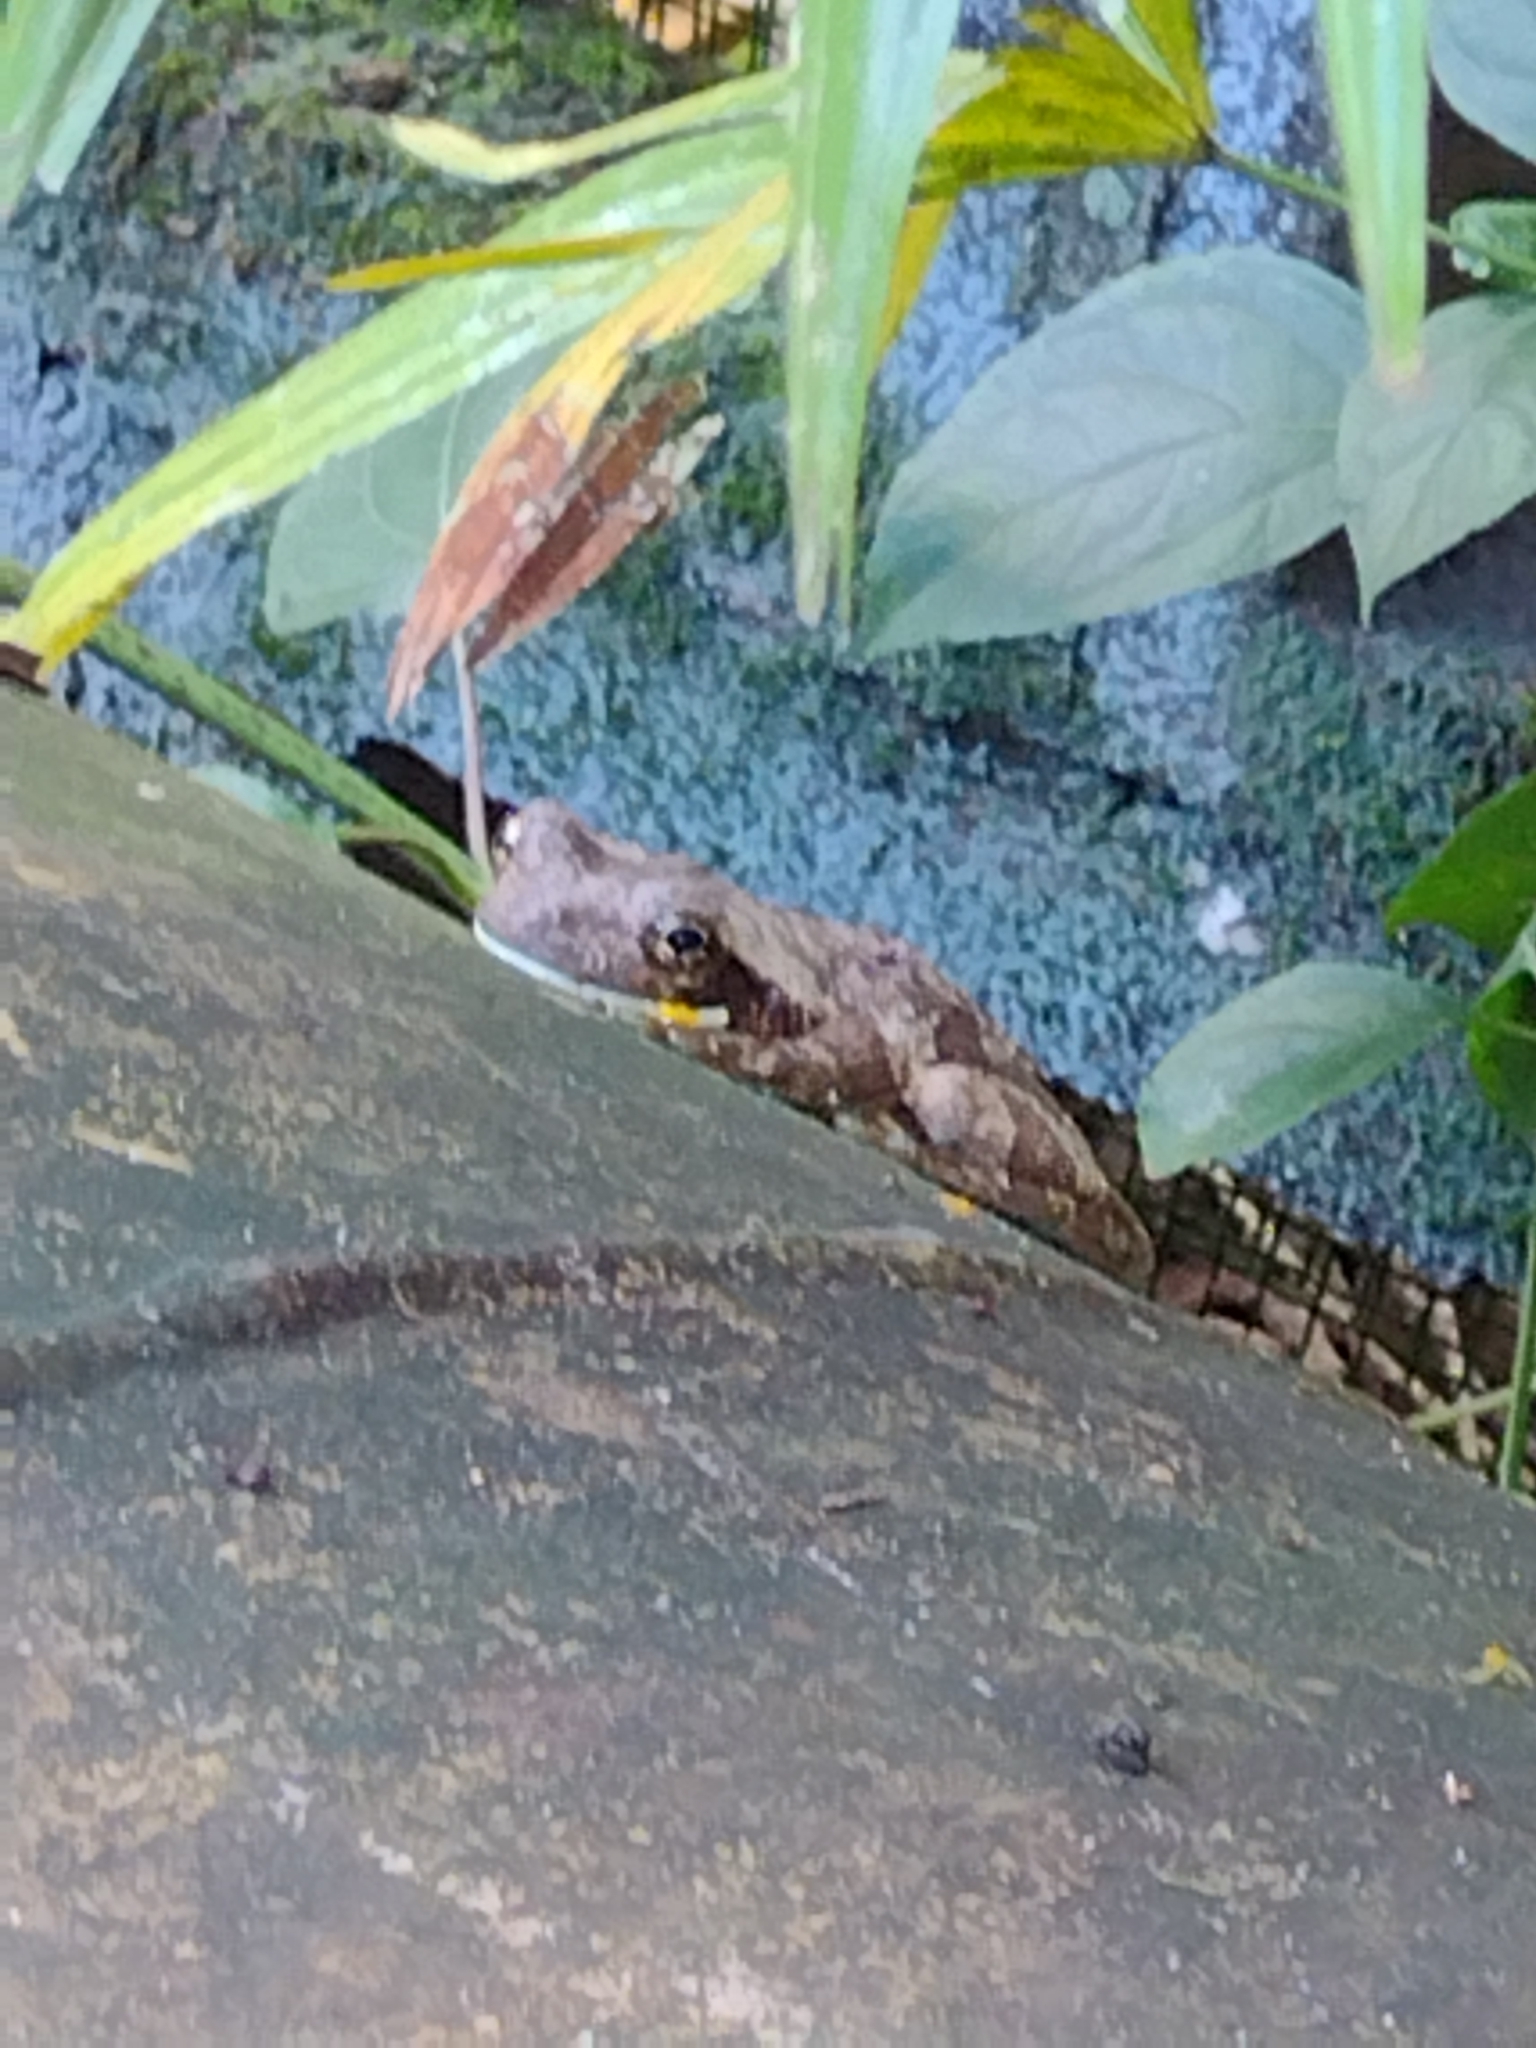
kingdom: Animalia
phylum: Chordata
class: Amphibia
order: Anura
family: Hylidae
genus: Trachycephalus
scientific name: Trachycephalus typhonius
